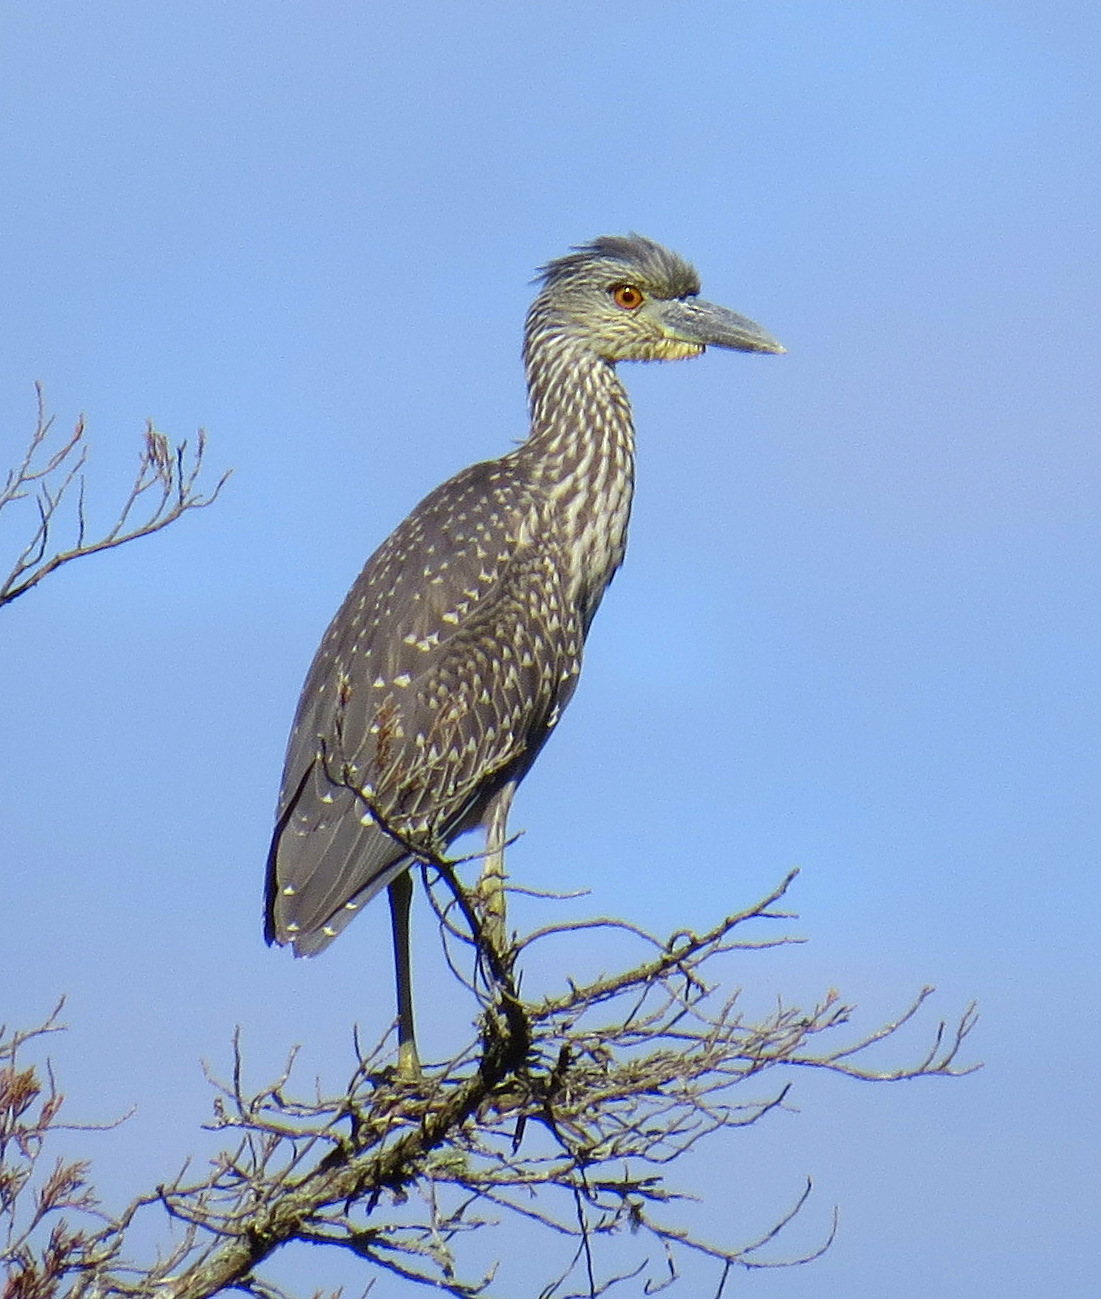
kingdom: Animalia
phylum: Chordata
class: Aves
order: Pelecaniformes
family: Ardeidae
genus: Nyctanassa
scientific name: Nyctanassa violacea
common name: Yellow-crowned night heron
